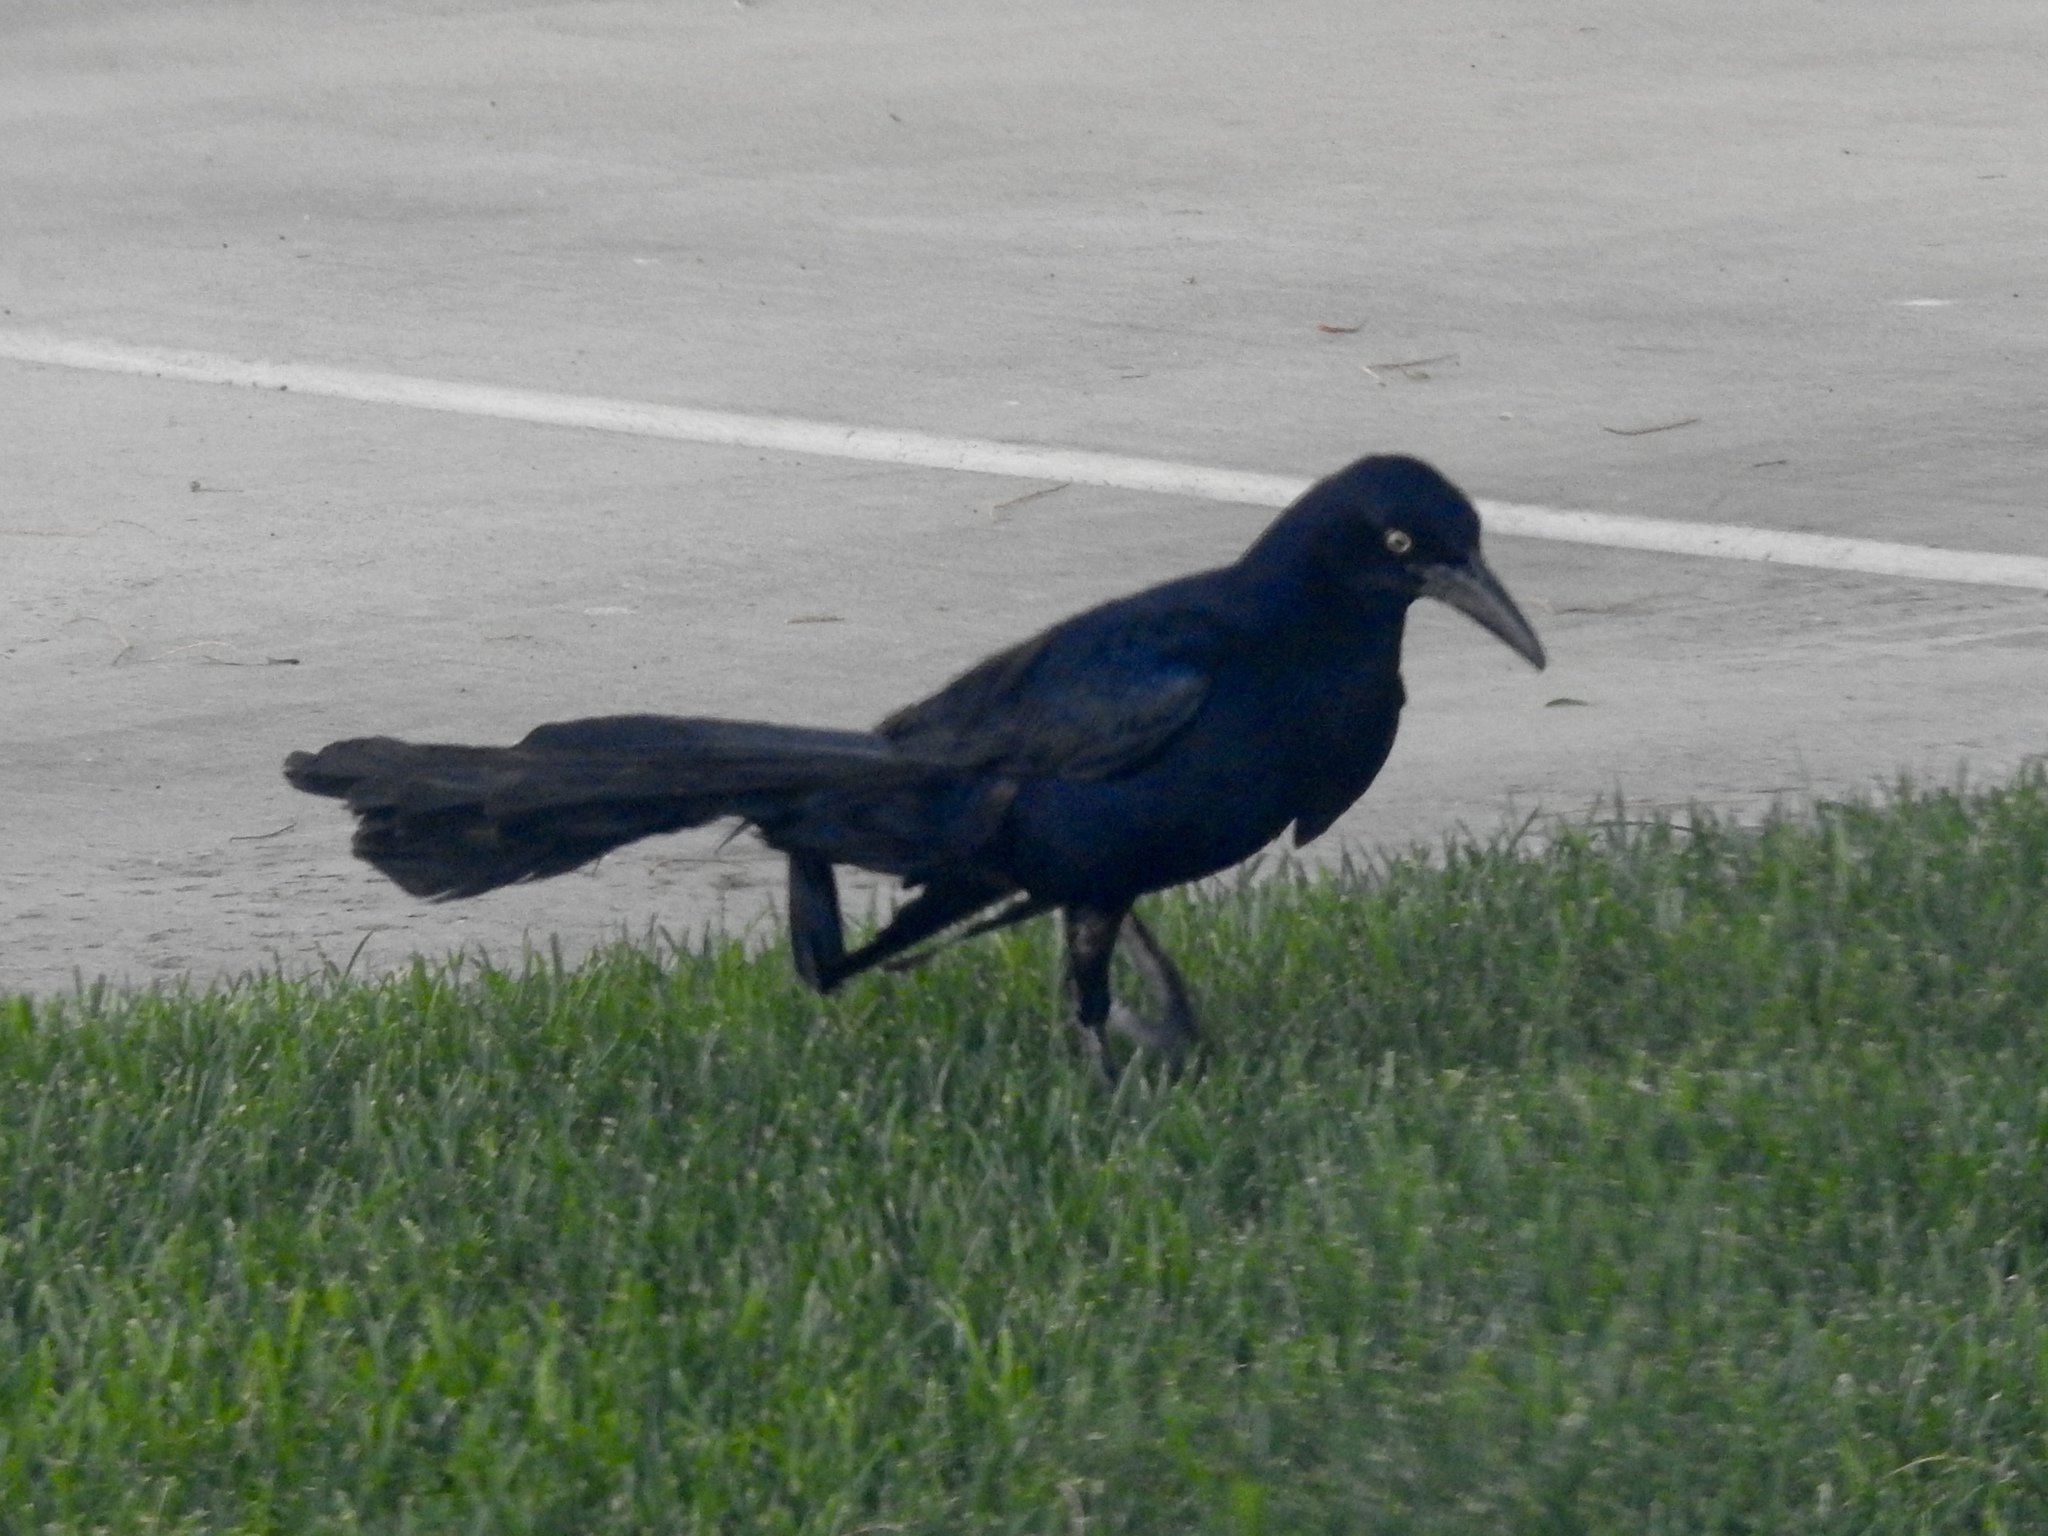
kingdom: Animalia
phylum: Chordata
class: Aves
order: Passeriformes
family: Icteridae
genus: Quiscalus
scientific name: Quiscalus mexicanus
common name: Great-tailed grackle
